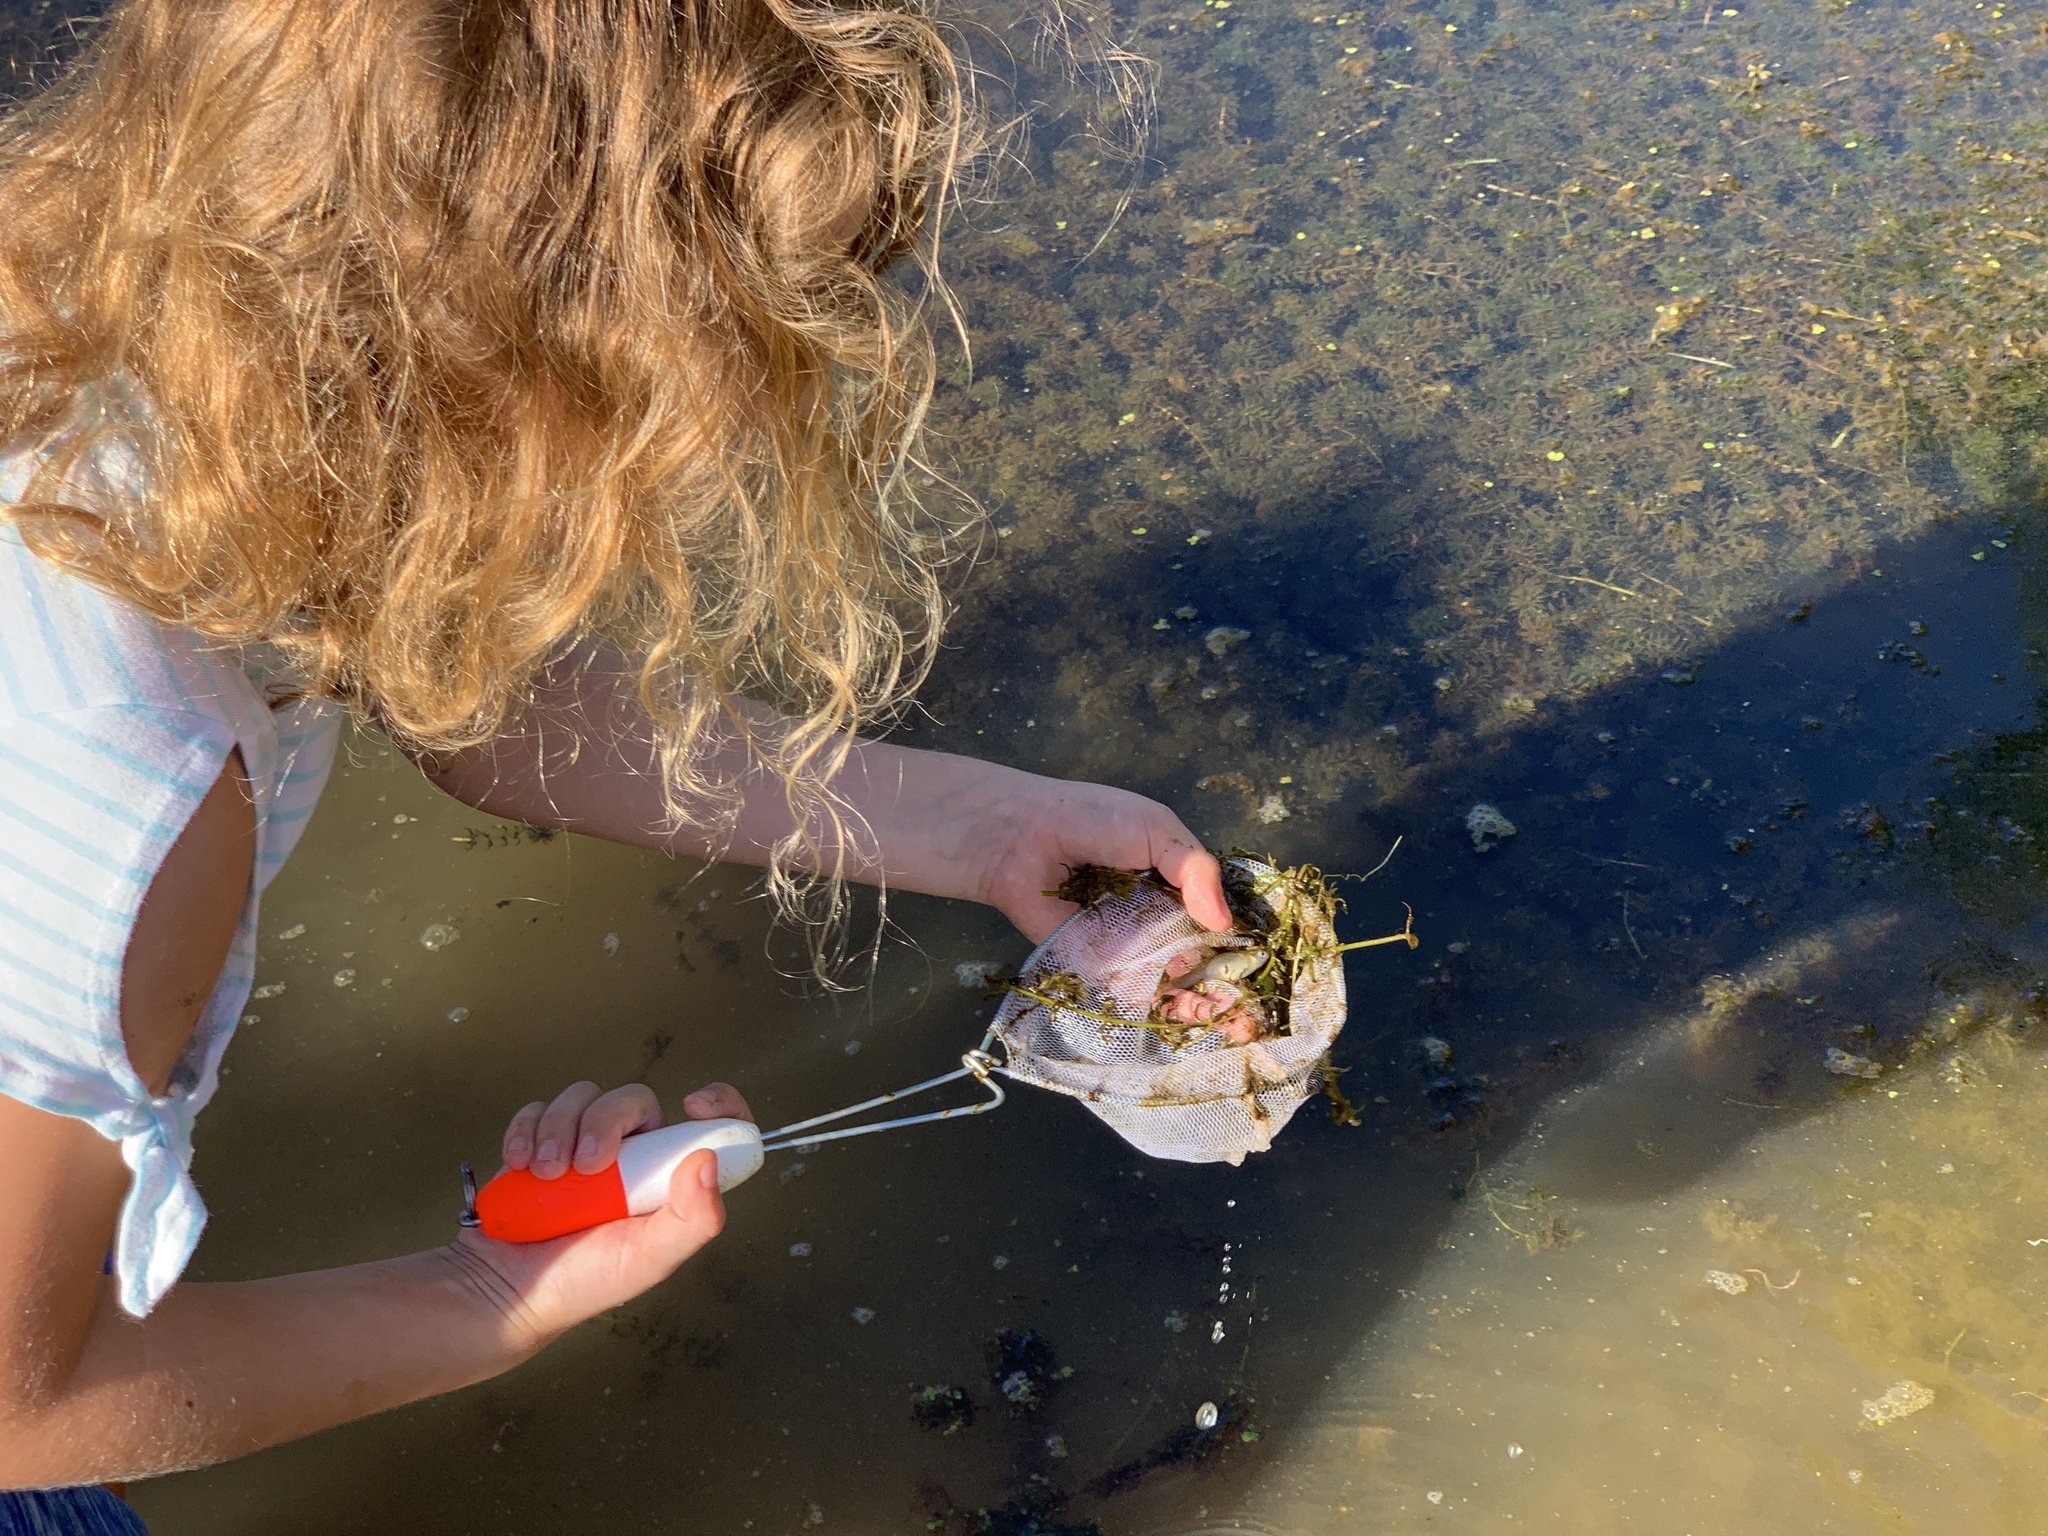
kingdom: Animalia
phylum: Chordata
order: Cyprinodontiformes
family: Poeciliidae
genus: Gambusia
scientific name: Gambusia holbrooki
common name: Eastern mosquitofish
